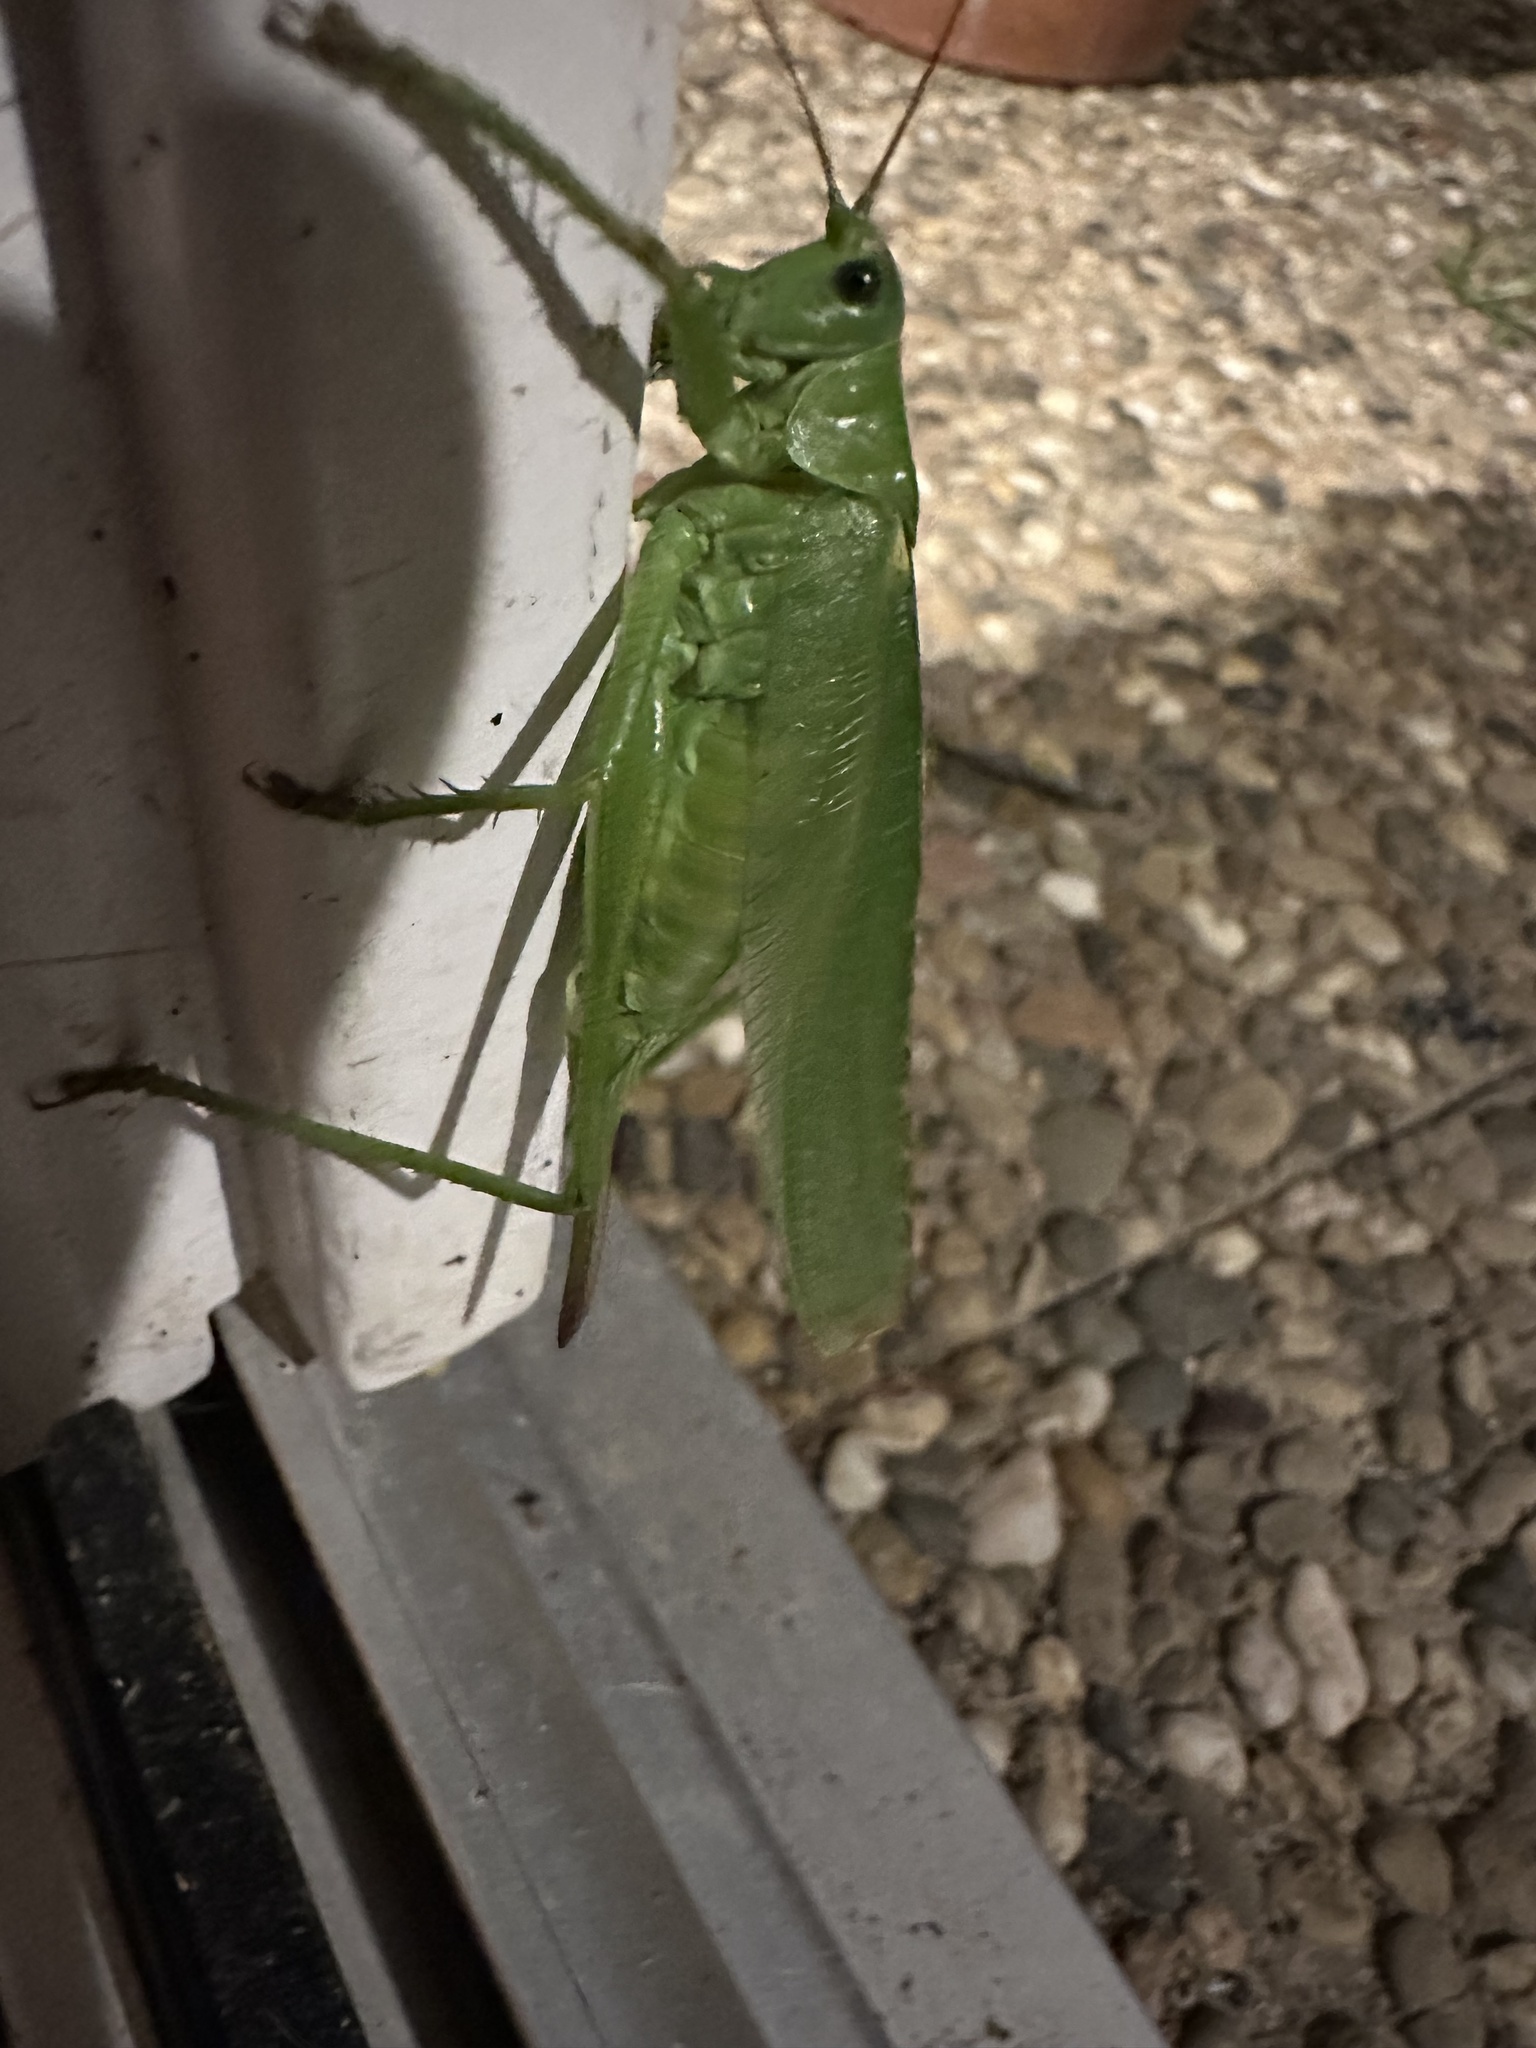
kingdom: Animalia
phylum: Arthropoda
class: Insecta
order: Orthoptera
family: Tettigoniidae
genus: Tettigonia
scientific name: Tettigonia viridissima
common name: Great green bush-cricket
